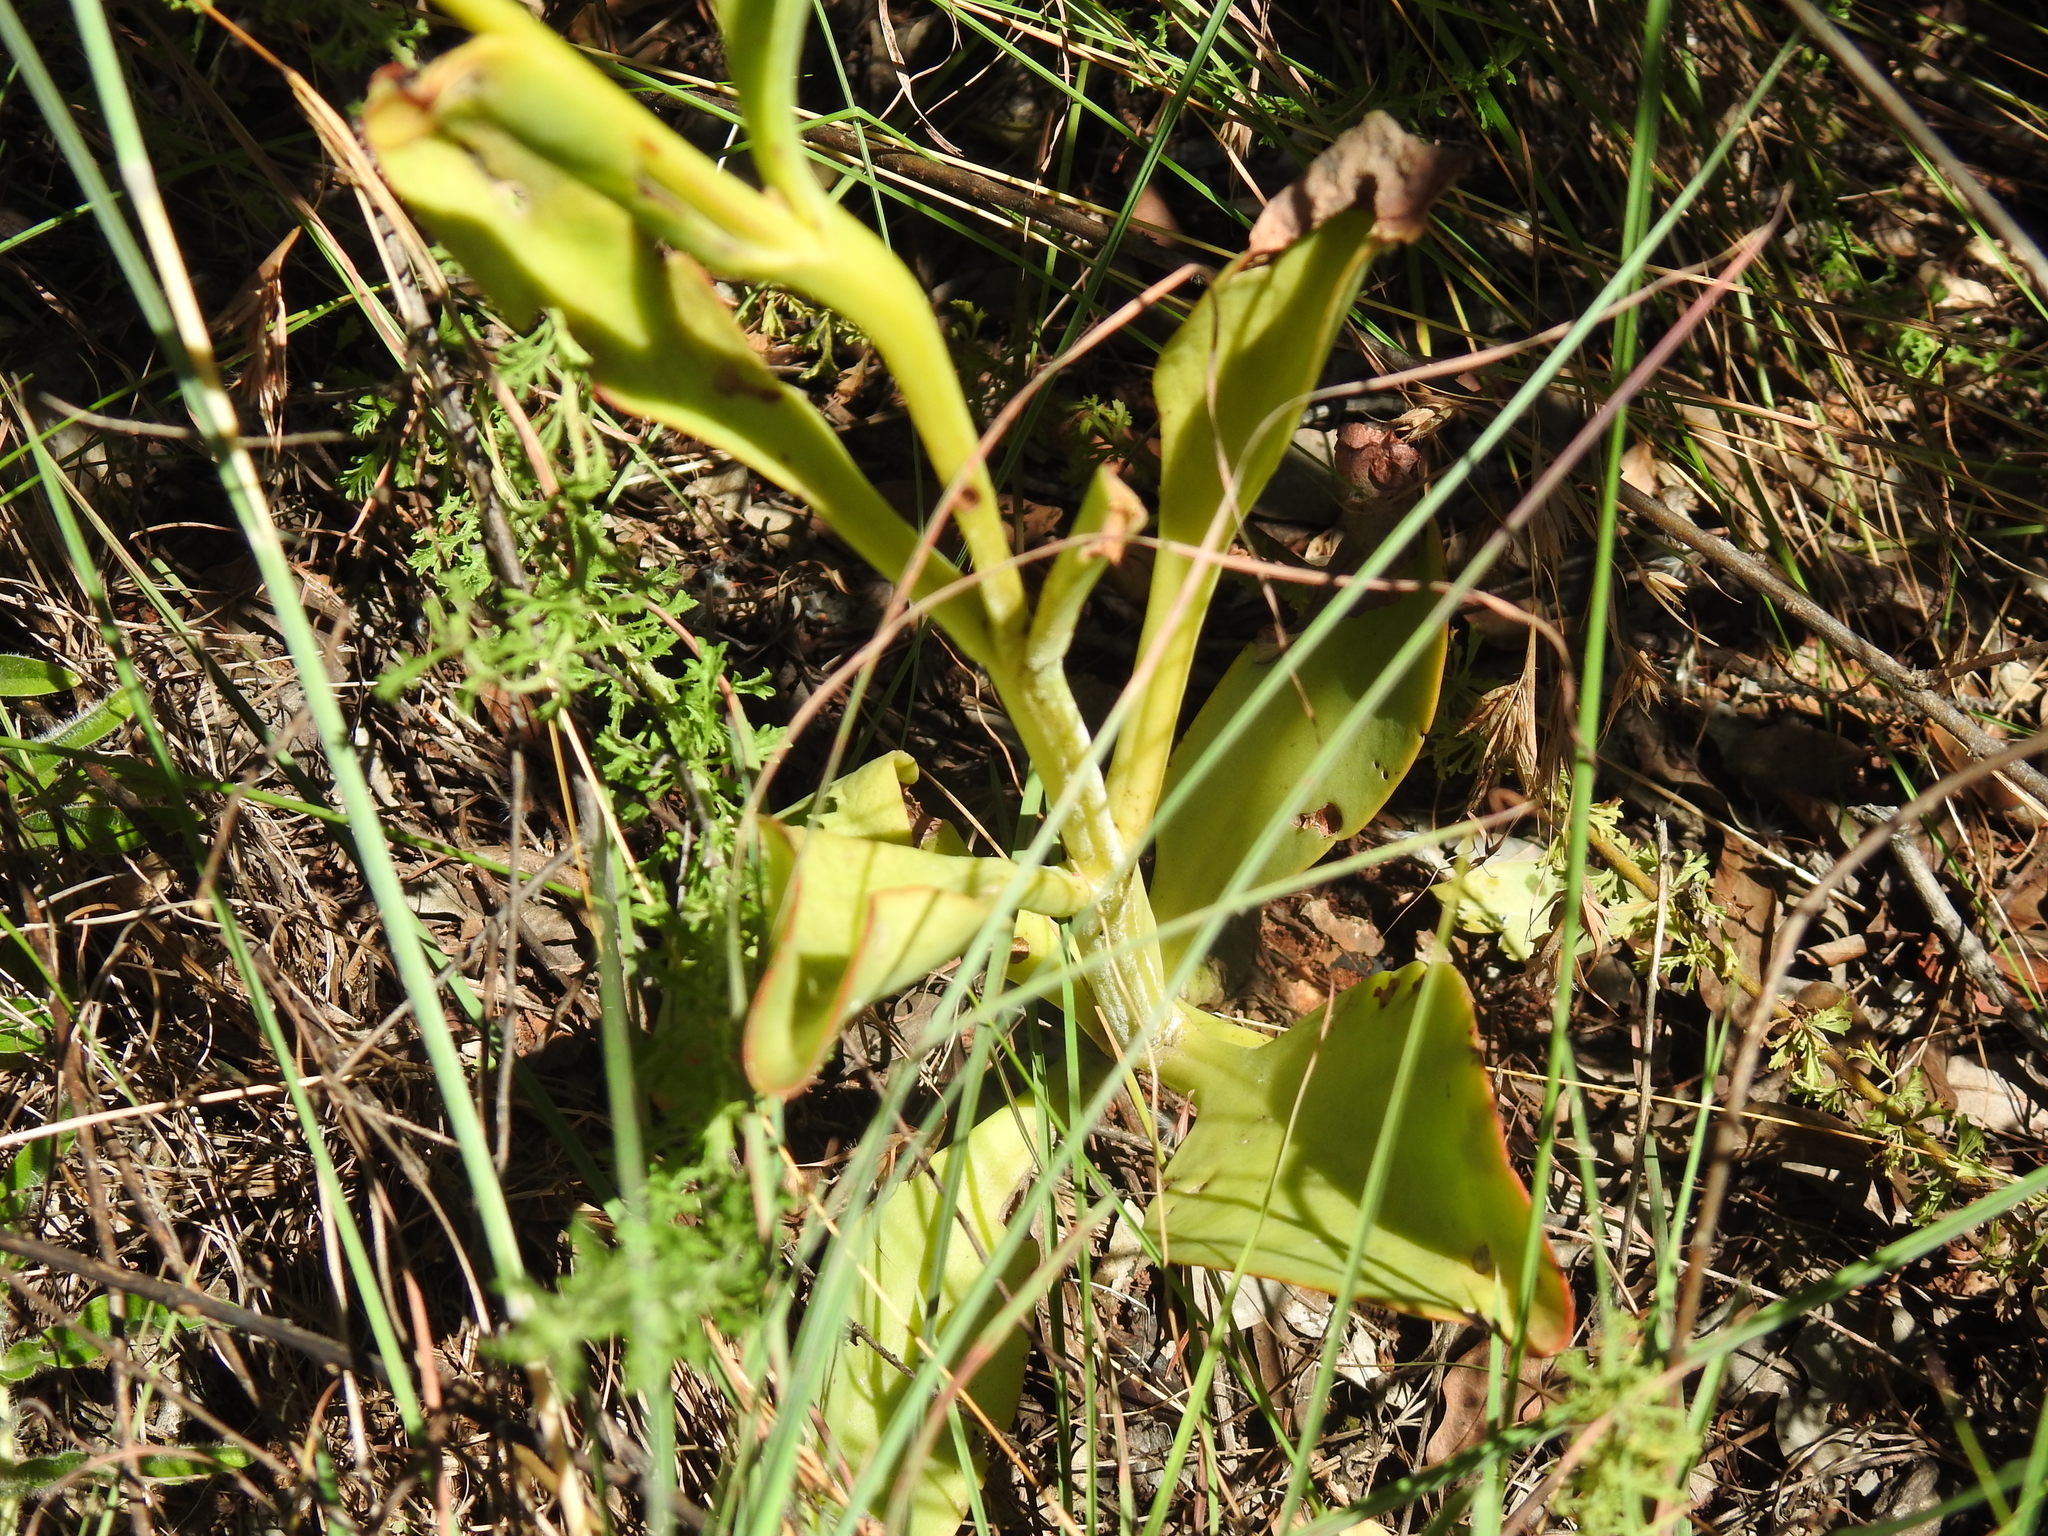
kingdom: Plantae
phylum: Tracheophyta
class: Magnoliopsida
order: Saxifragales
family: Crassulaceae
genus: Kalanchoe
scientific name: Kalanchoe paniculata
